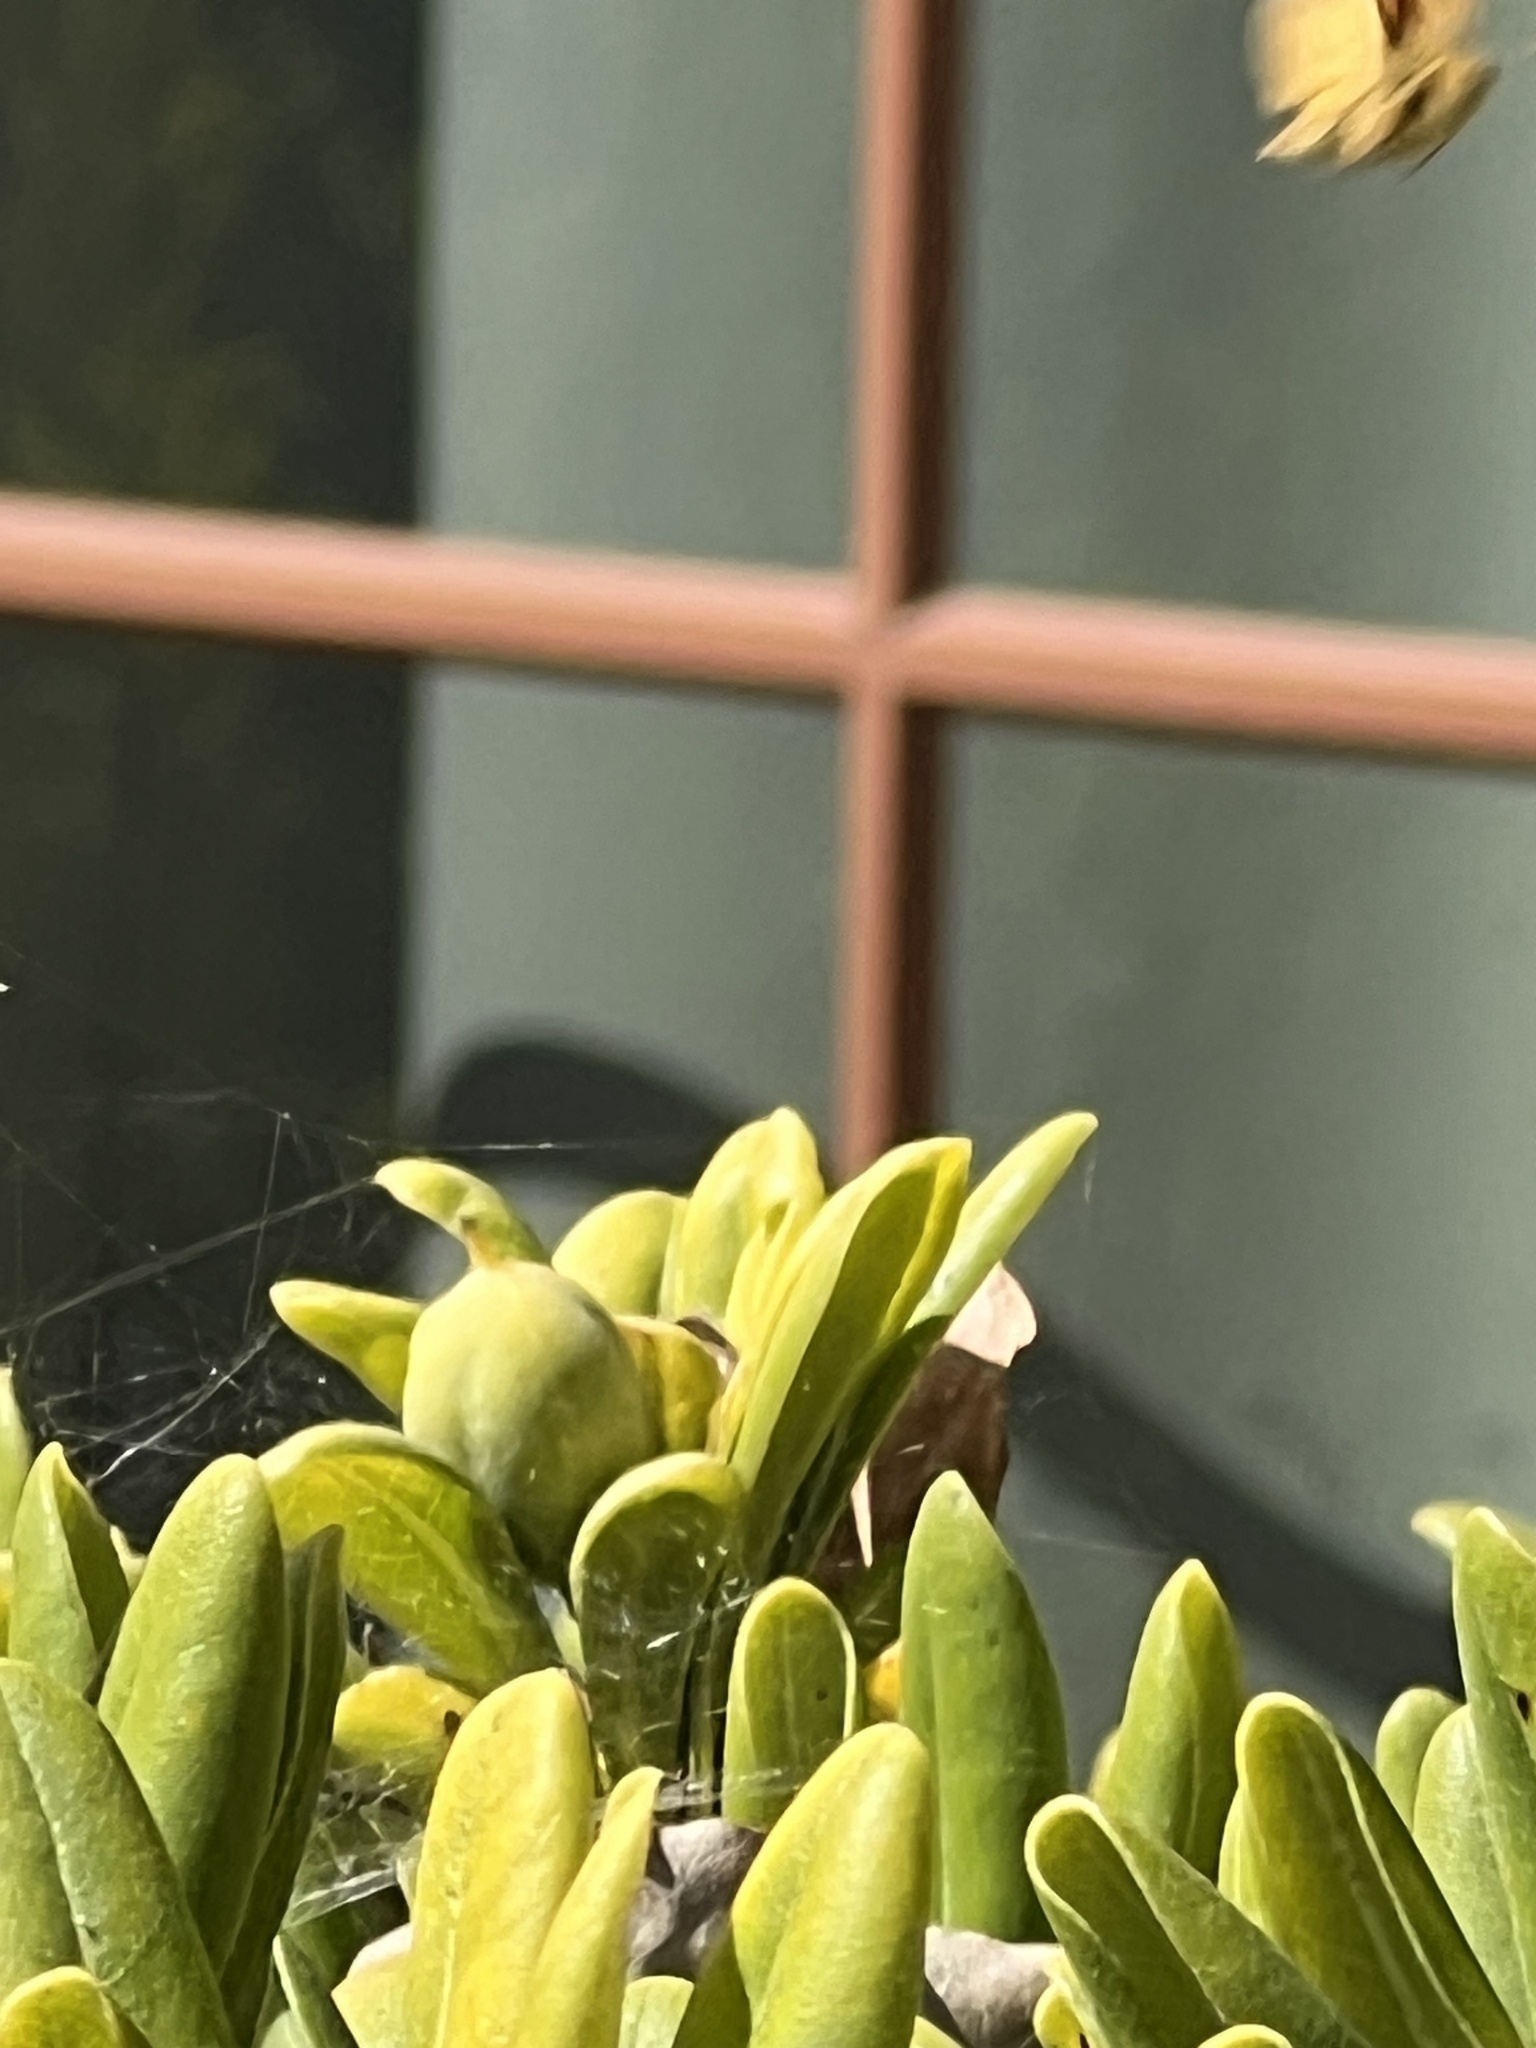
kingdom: Animalia
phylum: Arthropoda
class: Insecta
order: Lepidoptera
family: Hesperiidae
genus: Hylephila
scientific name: Hylephila phyleus
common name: Fiery skipper
